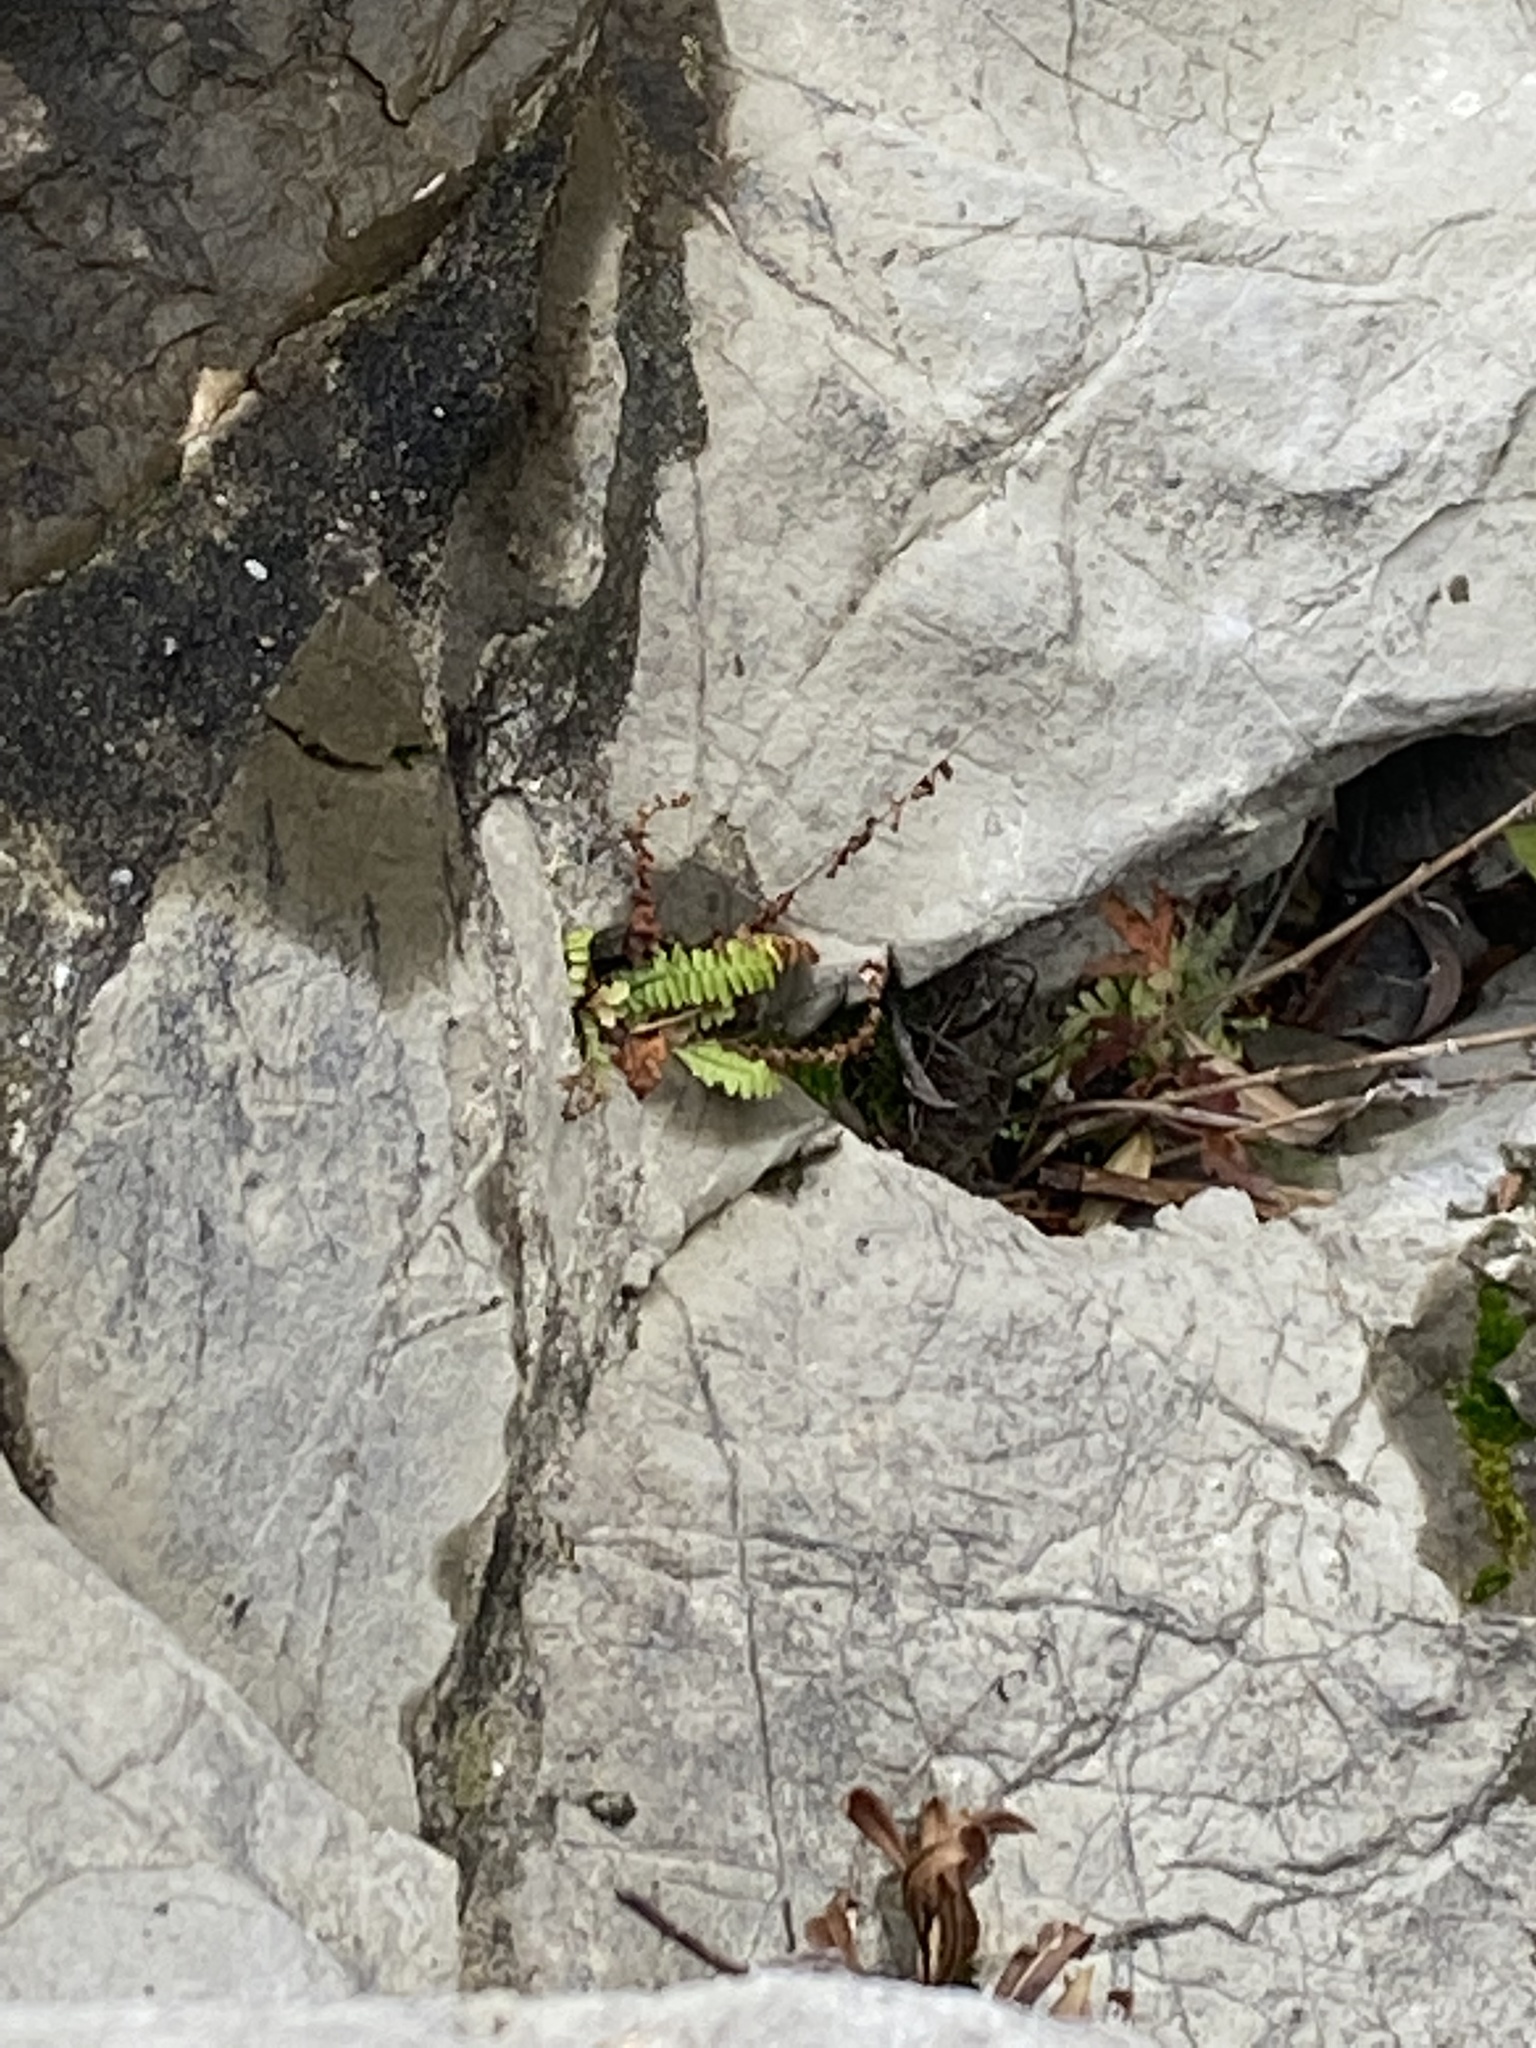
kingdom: Plantae
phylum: Tracheophyta
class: Polypodiopsida
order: Polypodiales
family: Aspleniaceae
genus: Asplenium
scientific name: Asplenium platyneuron
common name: Ebony spleenwort
